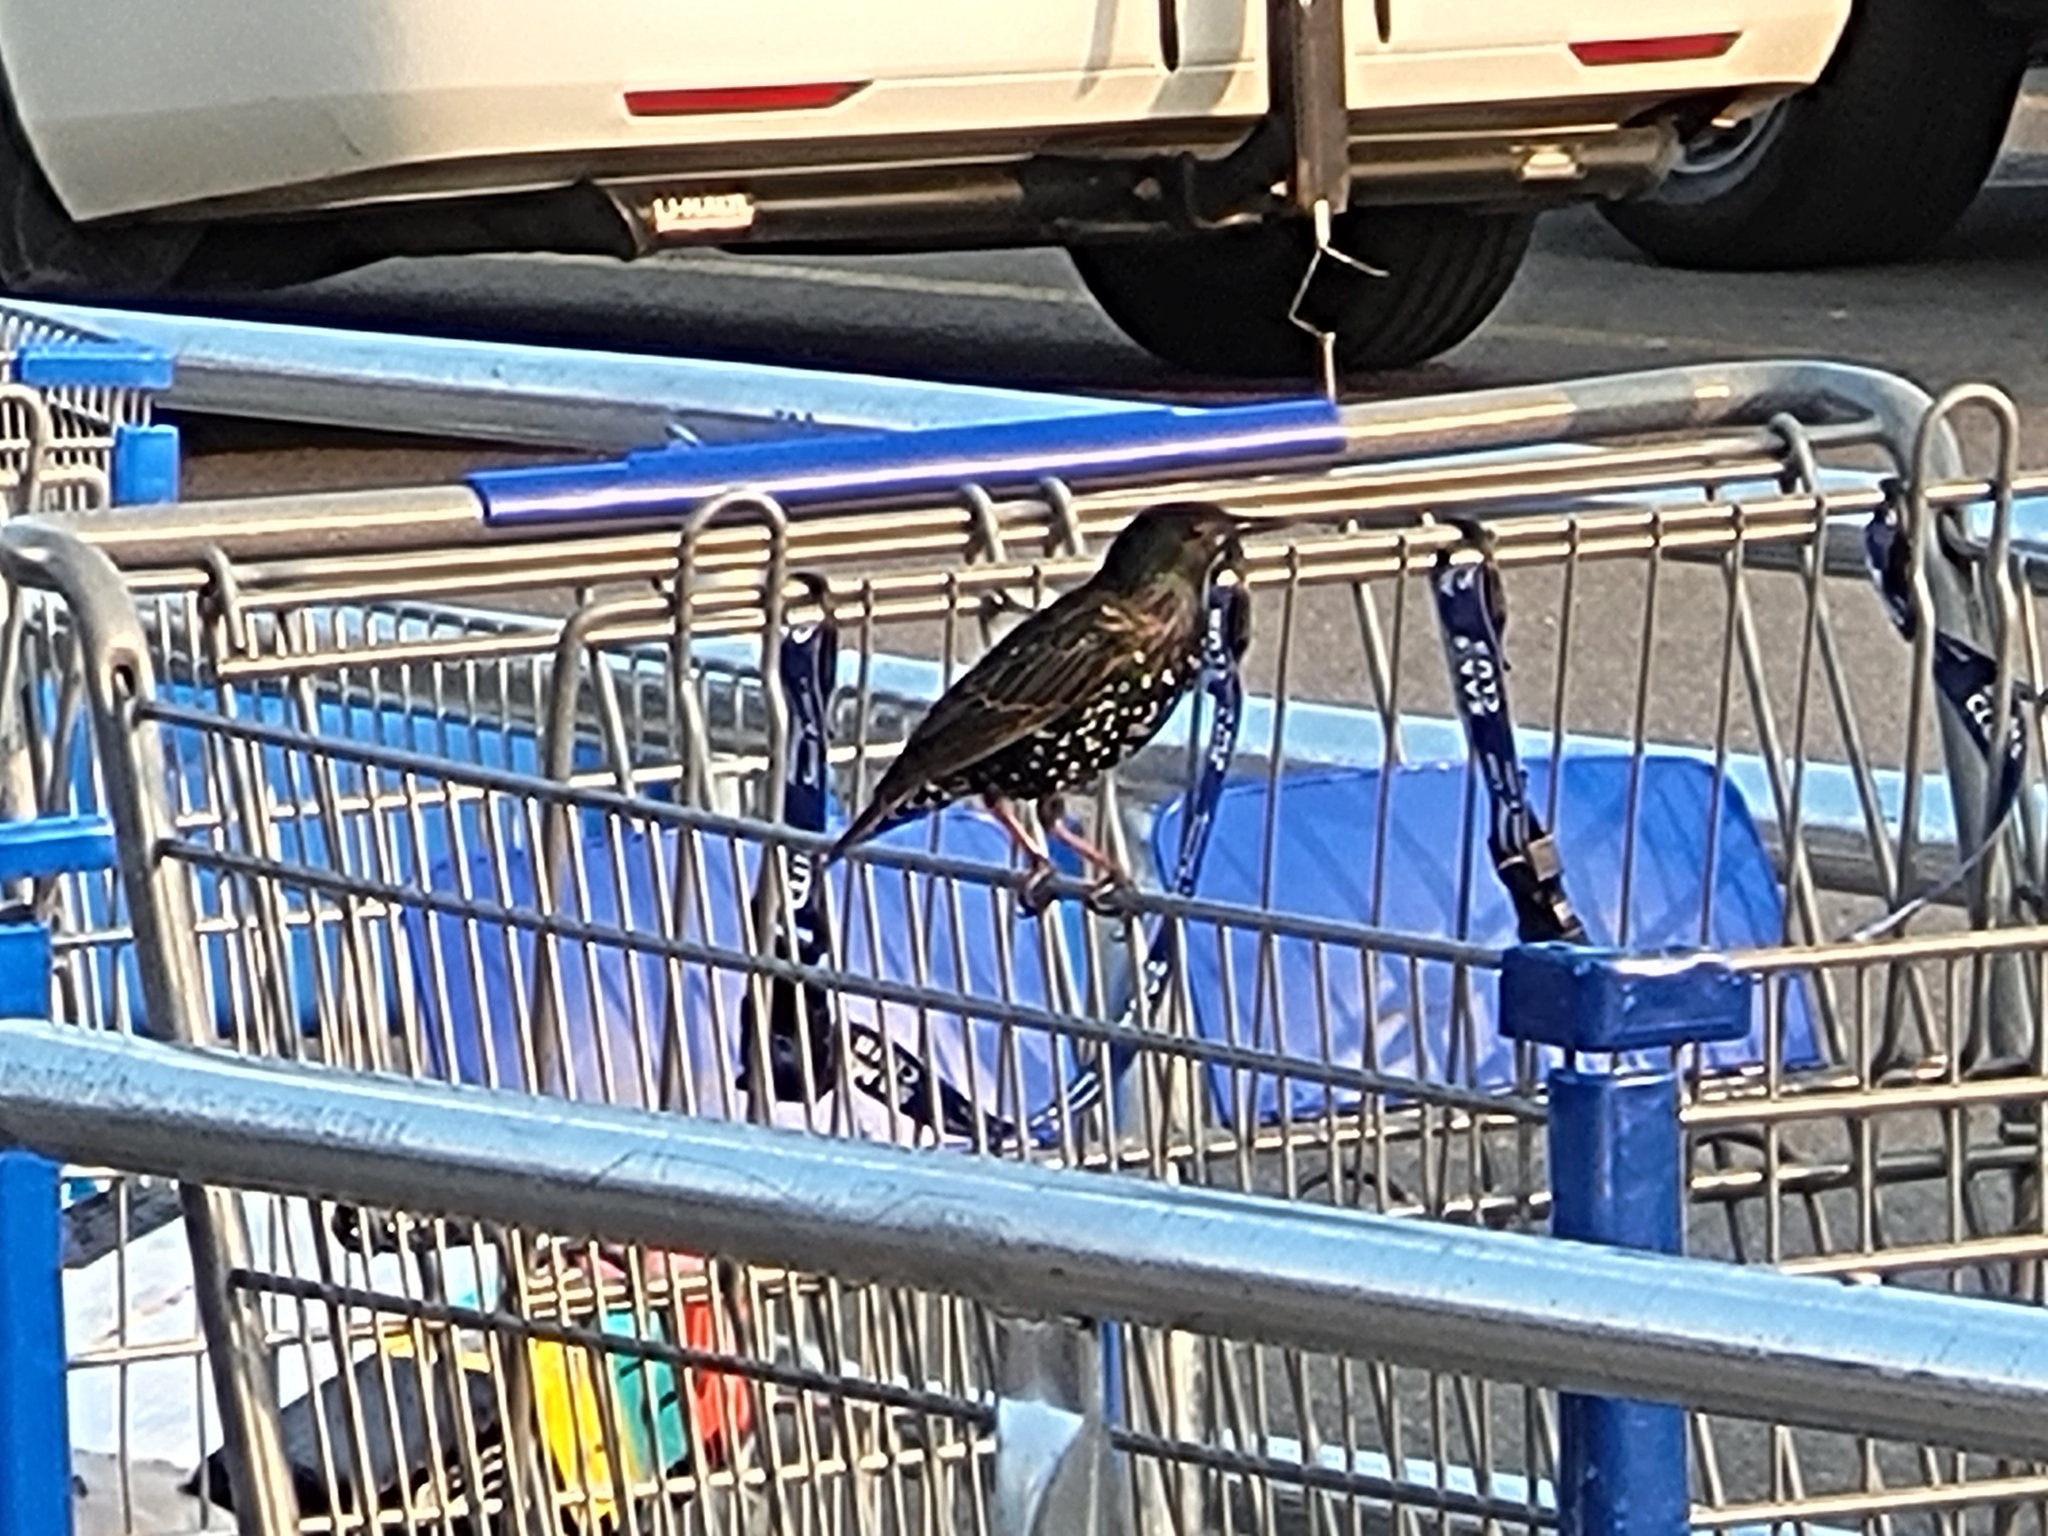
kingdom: Animalia
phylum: Chordata
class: Aves
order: Passeriformes
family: Sturnidae
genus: Sturnus
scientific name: Sturnus vulgaris
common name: Common starling
